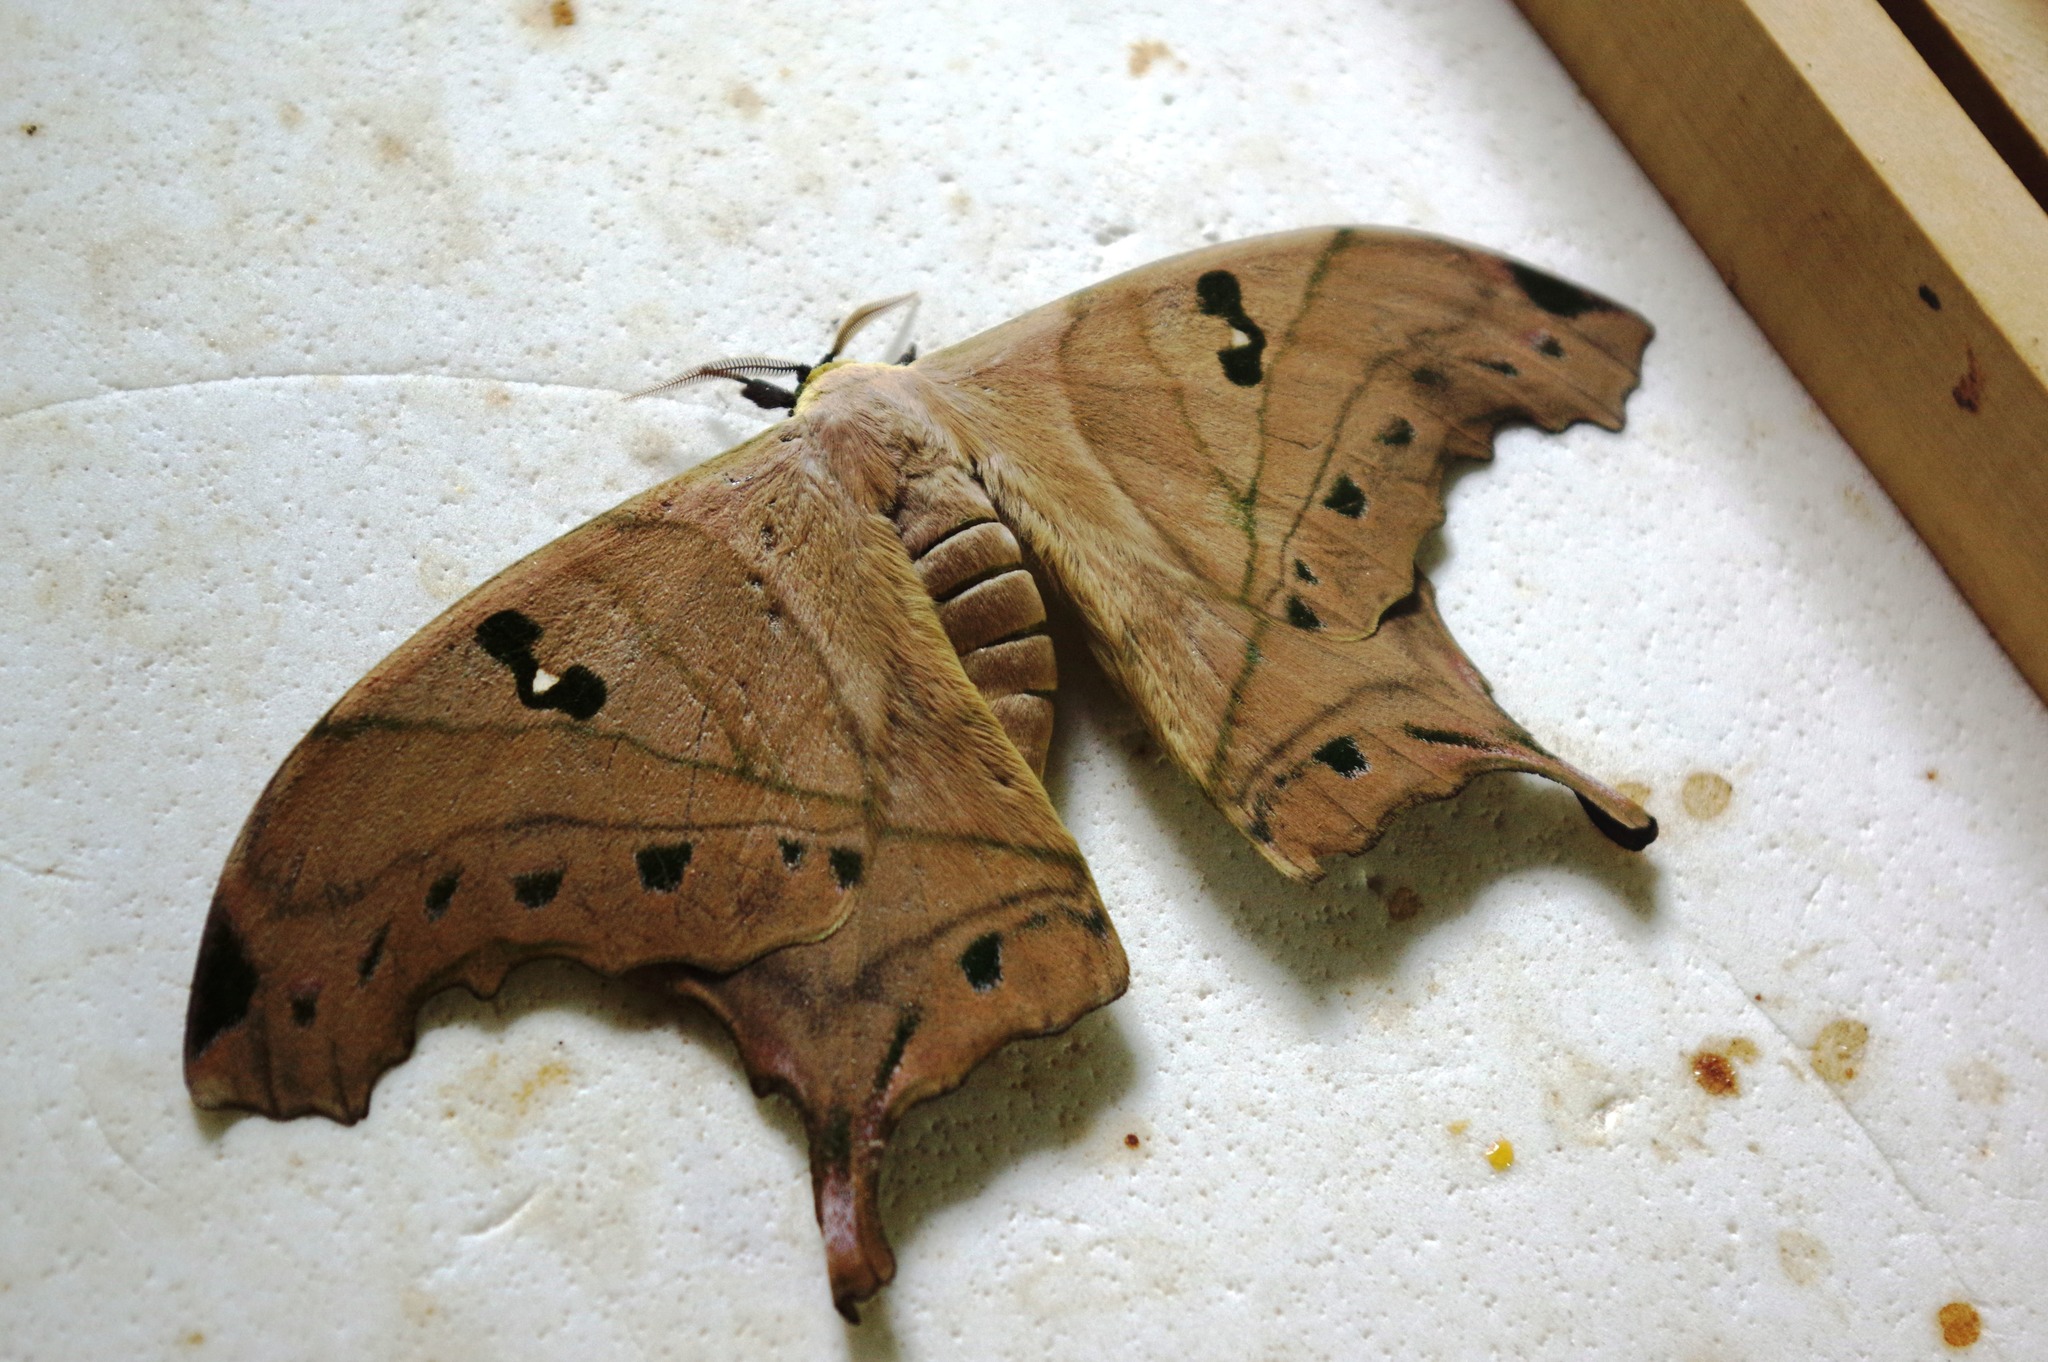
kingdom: Animalia
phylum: Arthropoda
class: Insecta
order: Lepidoptera
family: Saturniidae
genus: Titaea
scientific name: Titaea lemoulti
